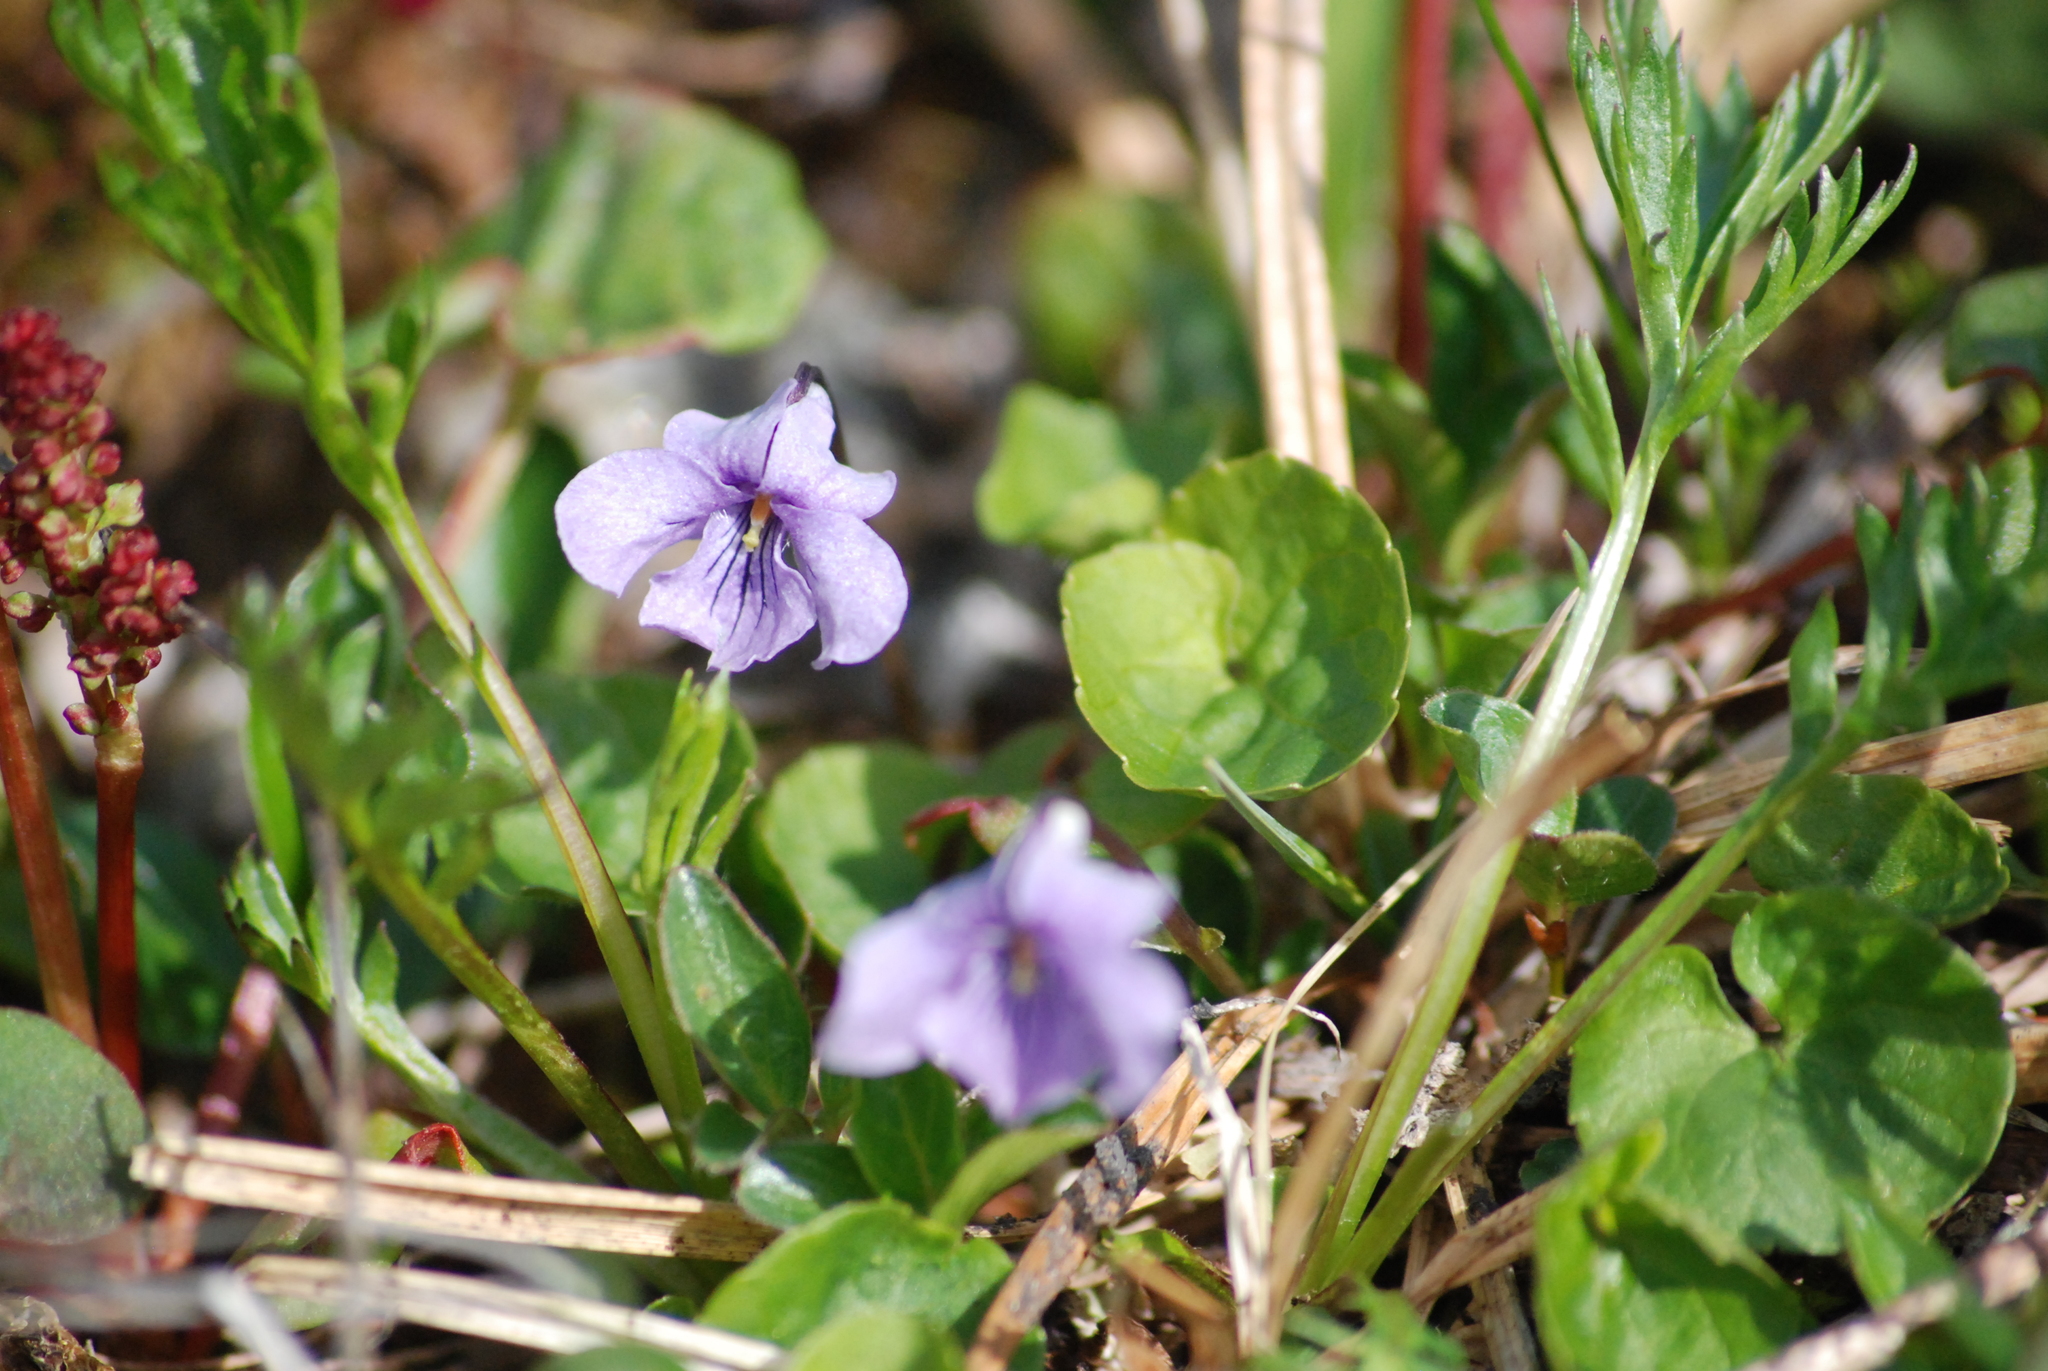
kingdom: Plantae
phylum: Tracheophyta
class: Magnoliopsida
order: Malpighiales
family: Violaceae
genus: Viola
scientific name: Viola epipsila
